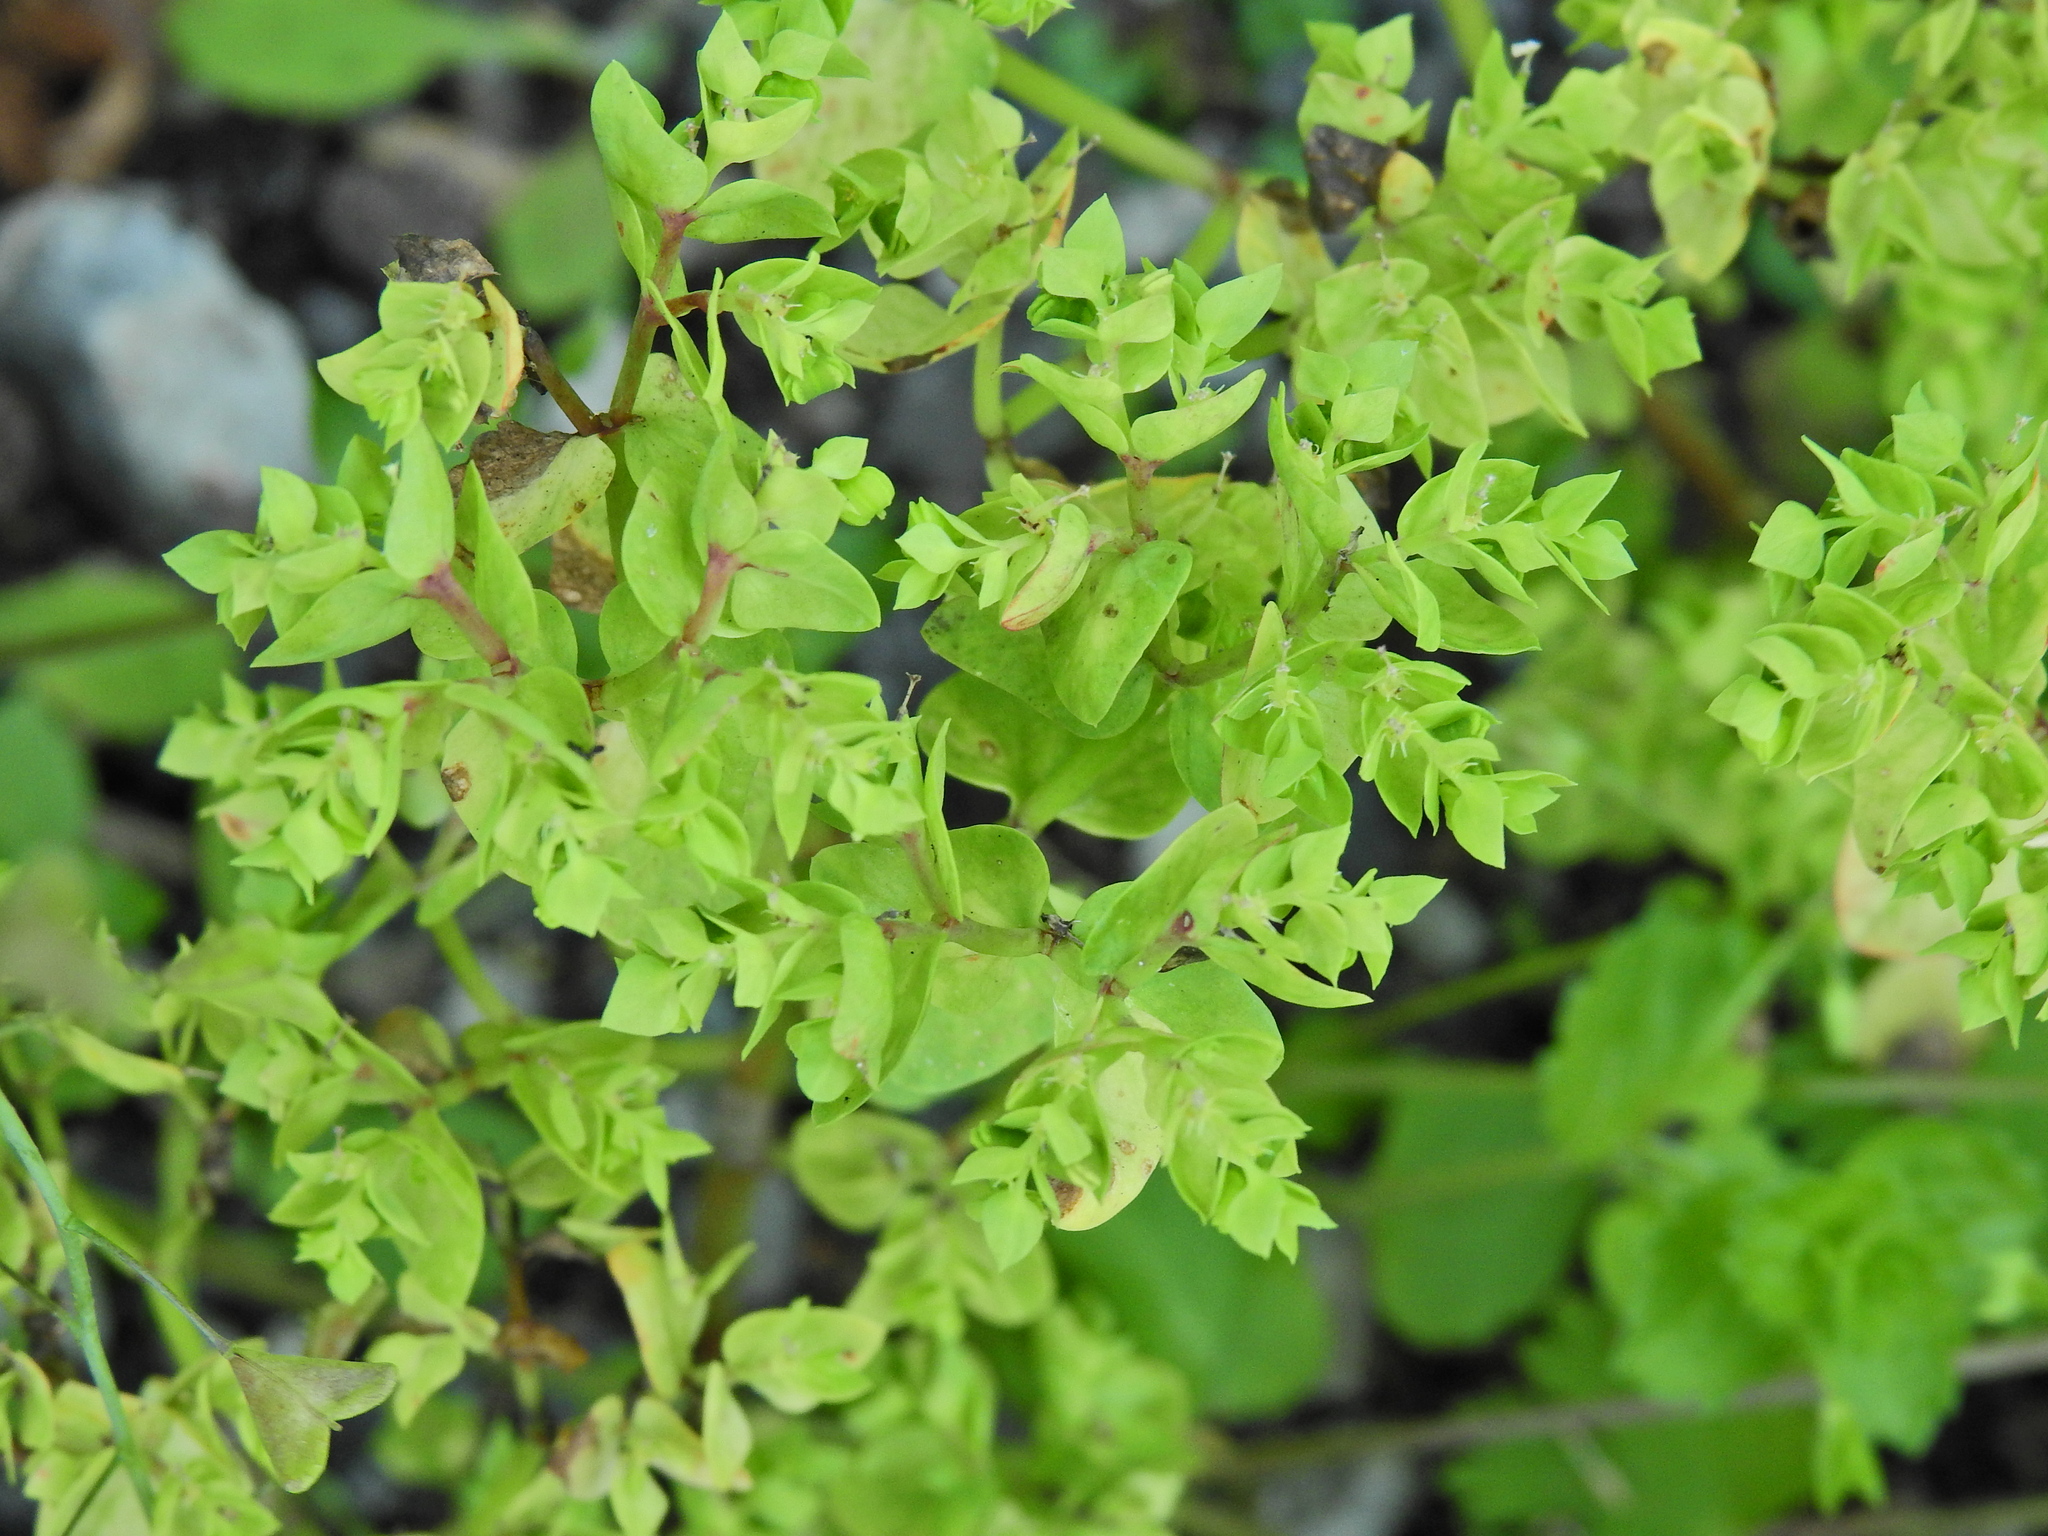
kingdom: Plantae
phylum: Tracheophyta
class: Magnoliopsida
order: Malpighiales
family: Euphorbiaceae
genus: Euphorbia
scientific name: Euphorbia peplus
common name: Petty spurge
